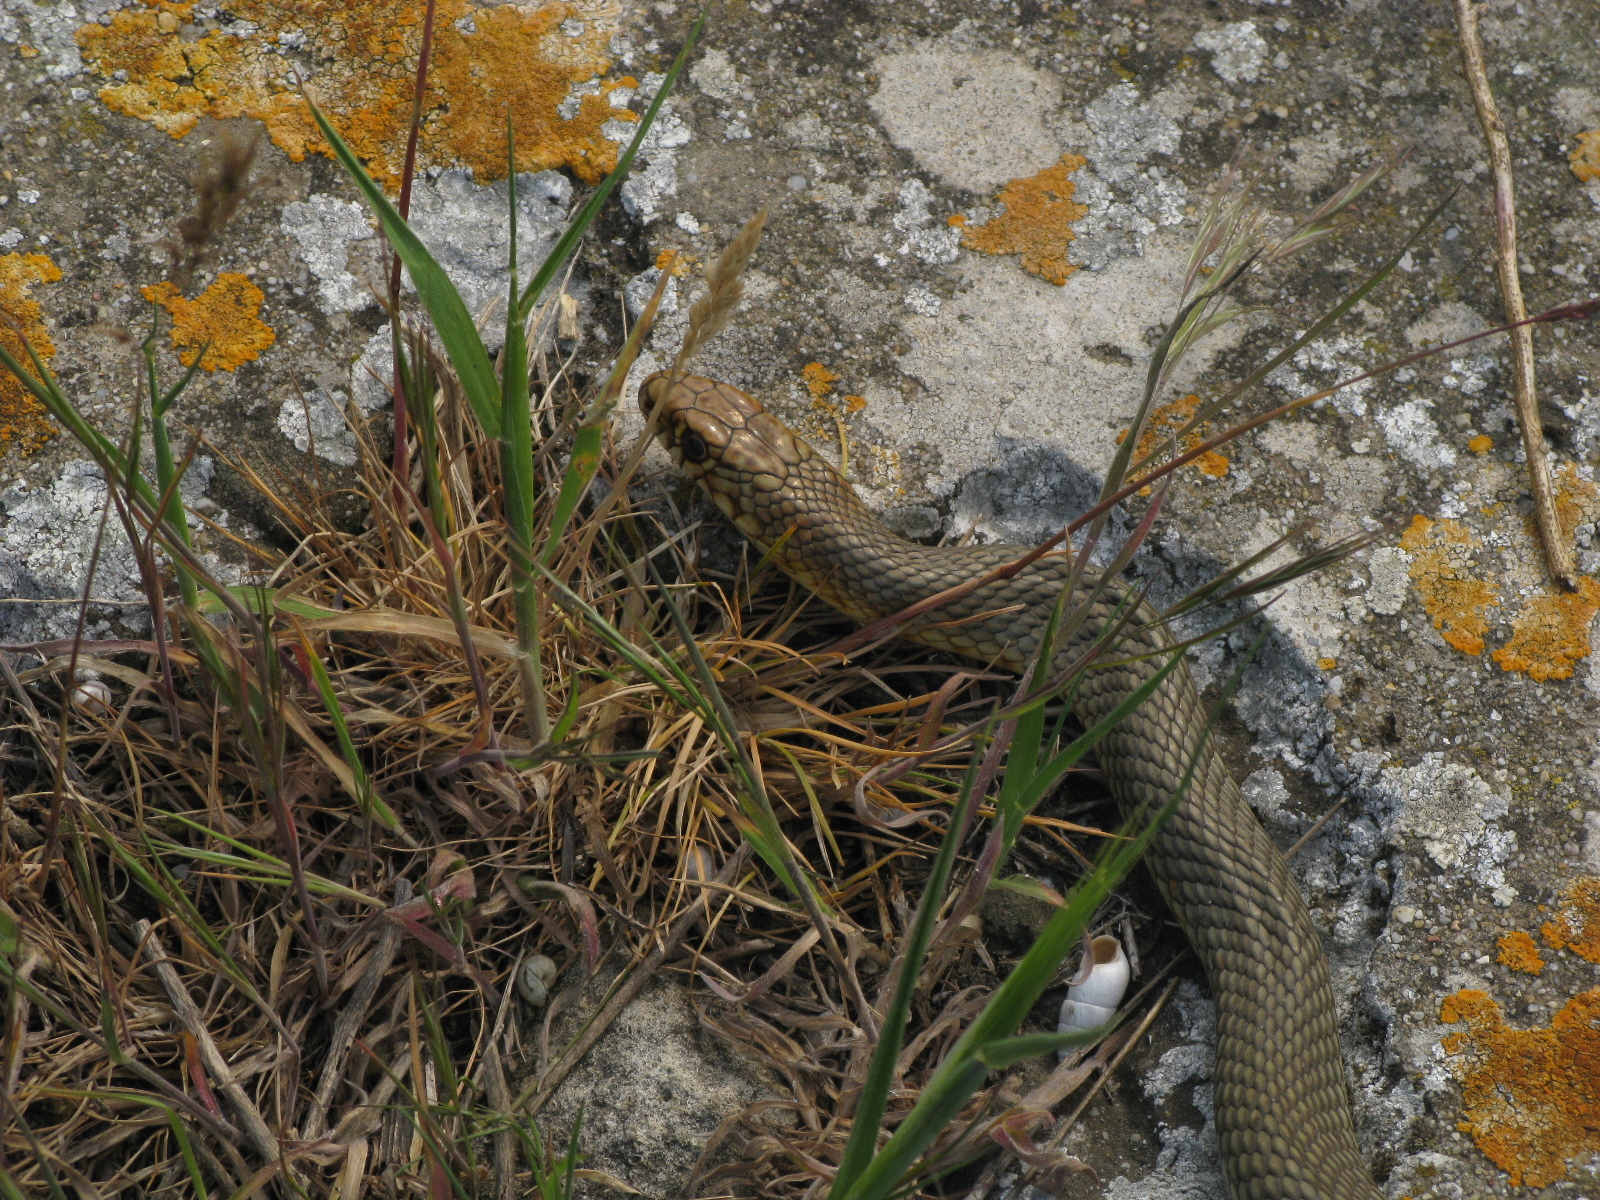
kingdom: Animalia
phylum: Chordata
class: Squamata
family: Colubridae
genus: Dolichophis
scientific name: Dolichophis caspius
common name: Large whip snake
